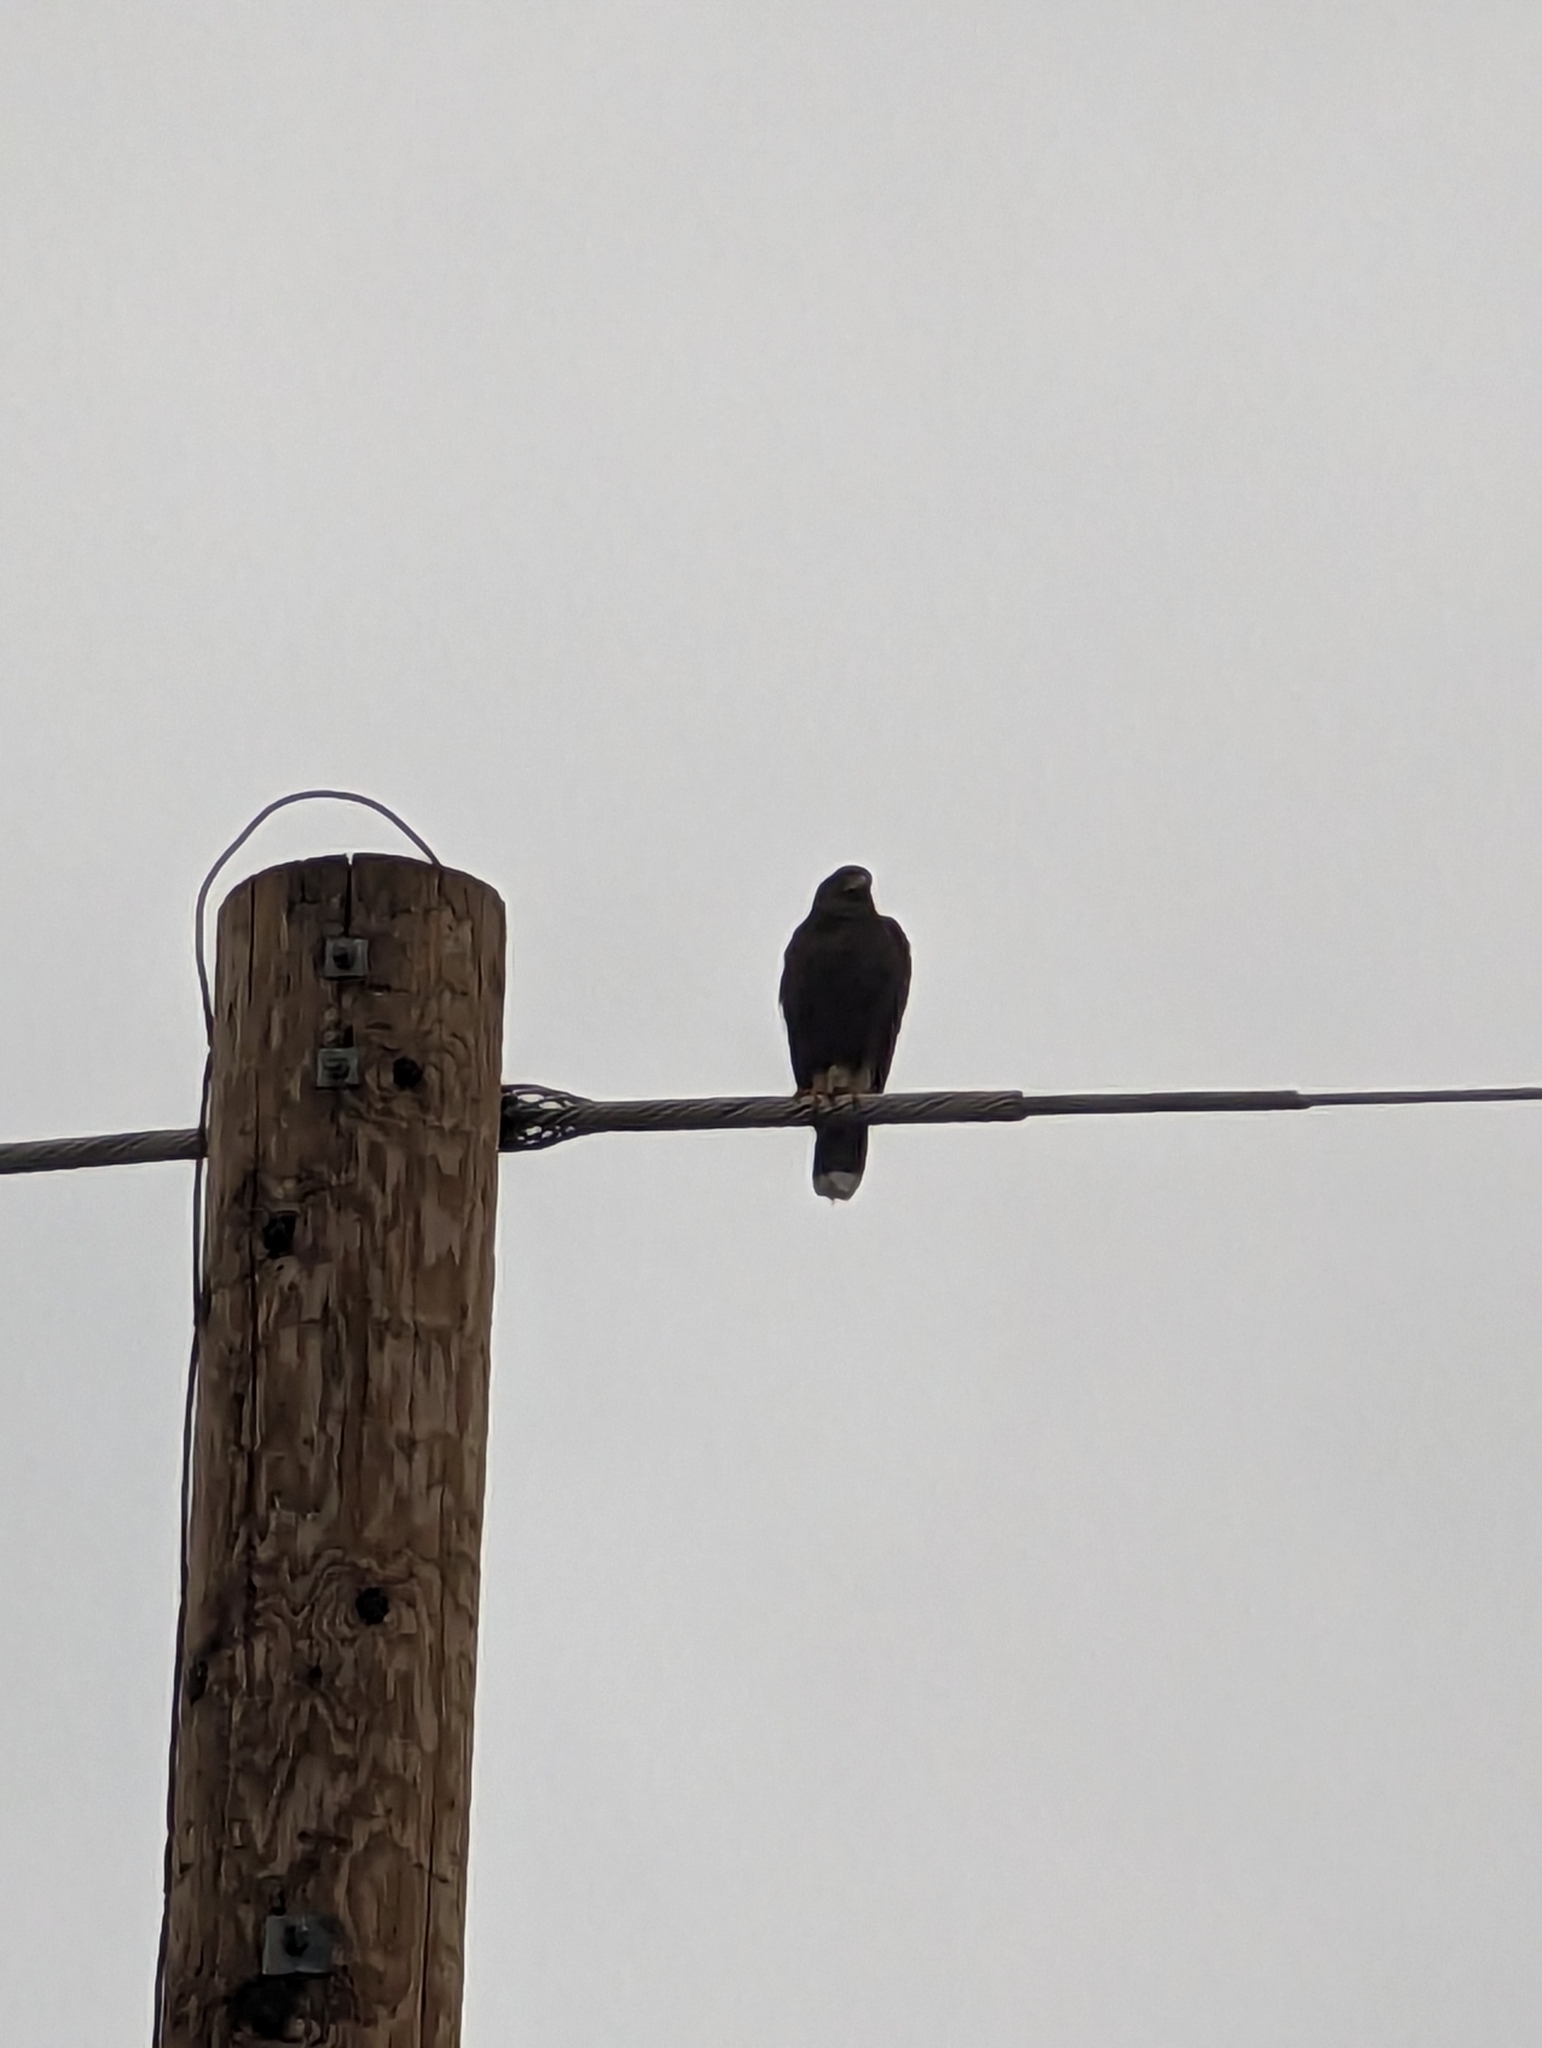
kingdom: Animalia
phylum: Chordata
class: Aves
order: Accipitriformes
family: Accipitridae
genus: Parabuteo
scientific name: Parabuteo unicinctus
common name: Harris's hawk
